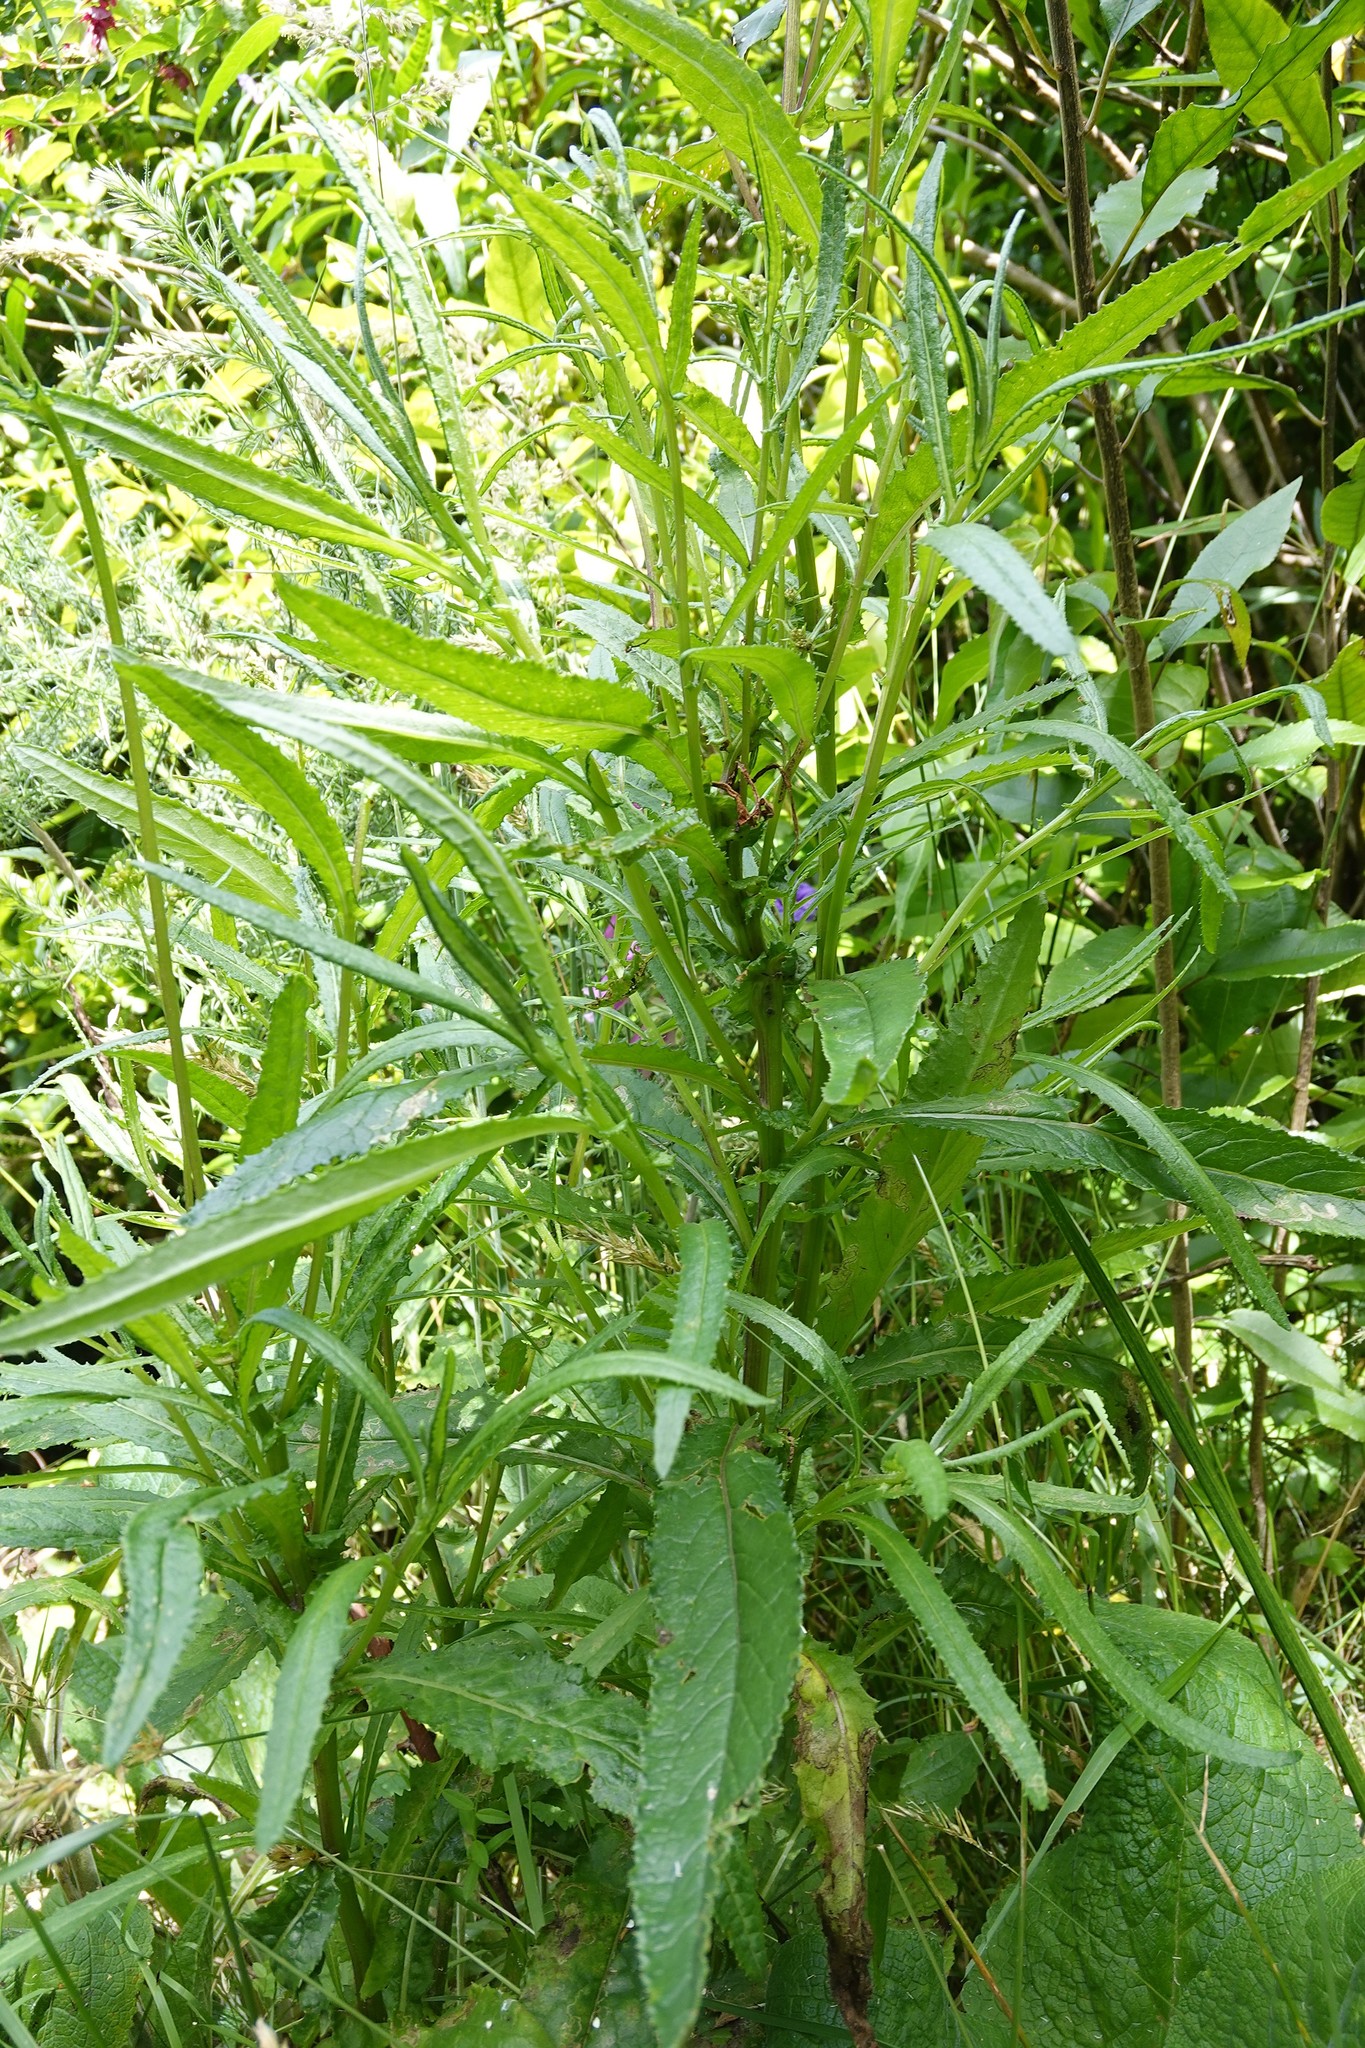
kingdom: Plantae
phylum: Tracheophyta
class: Magnoliopsida
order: Asterales
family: Asteraceae
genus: Senecio
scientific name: Senecio minimus
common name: Toothed fireweed
